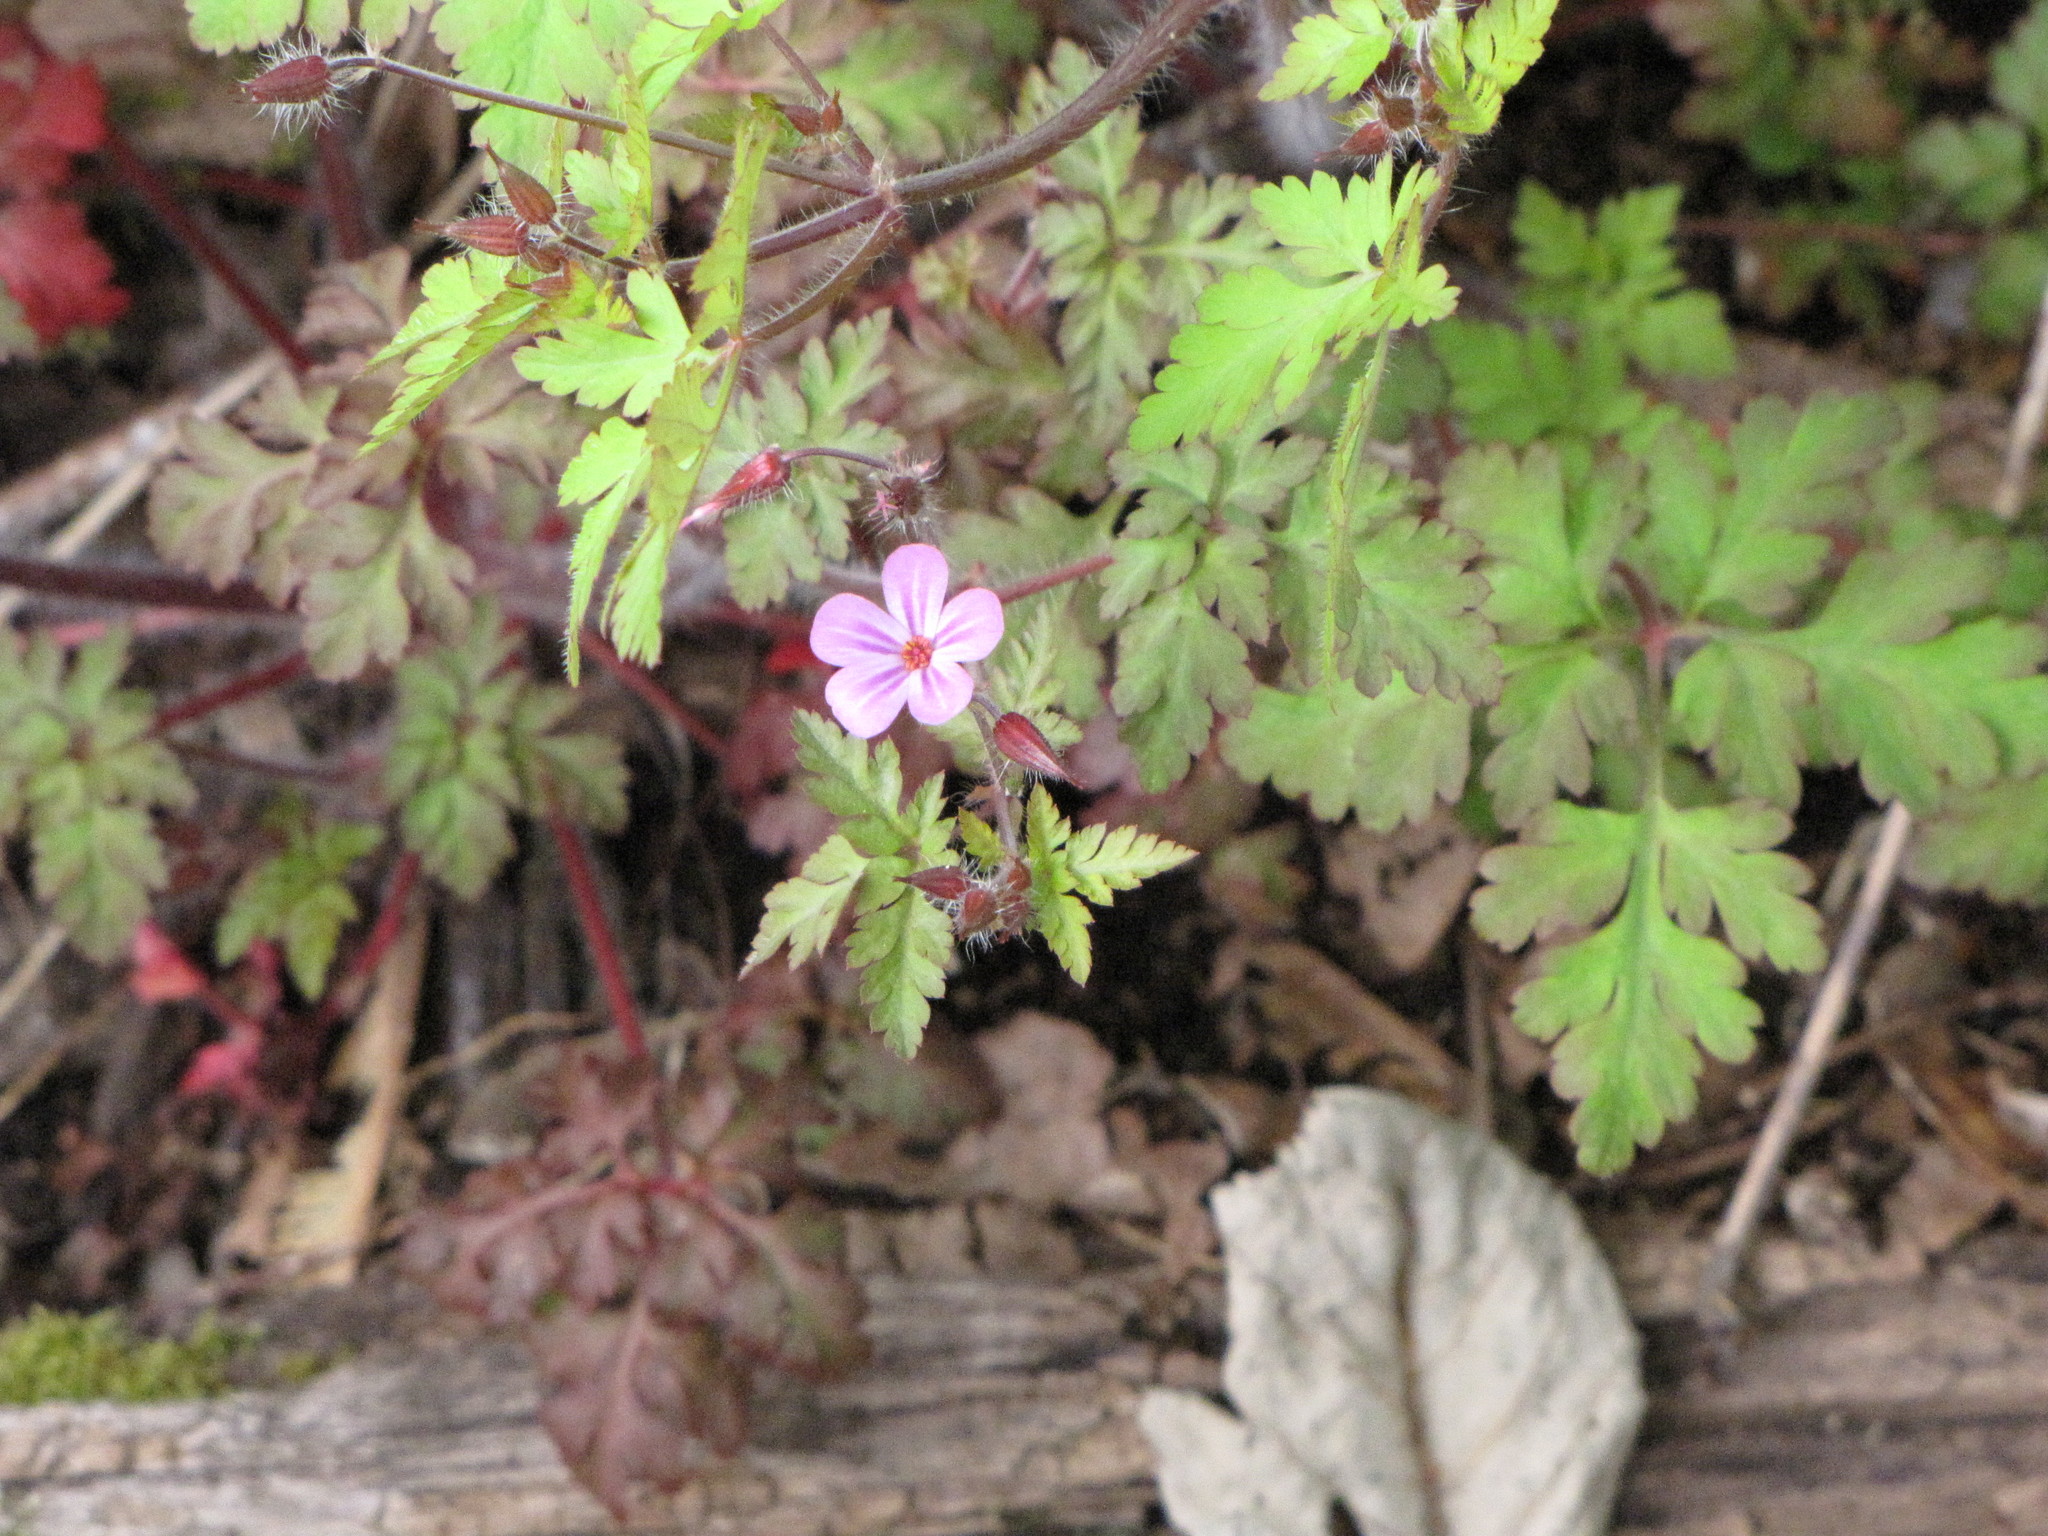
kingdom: Plantae
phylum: Tracheophyta
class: Magnoliopsida
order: Geraniales
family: Geraniaceae
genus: Geranium
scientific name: Geranium robertianum
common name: Herb-robert
